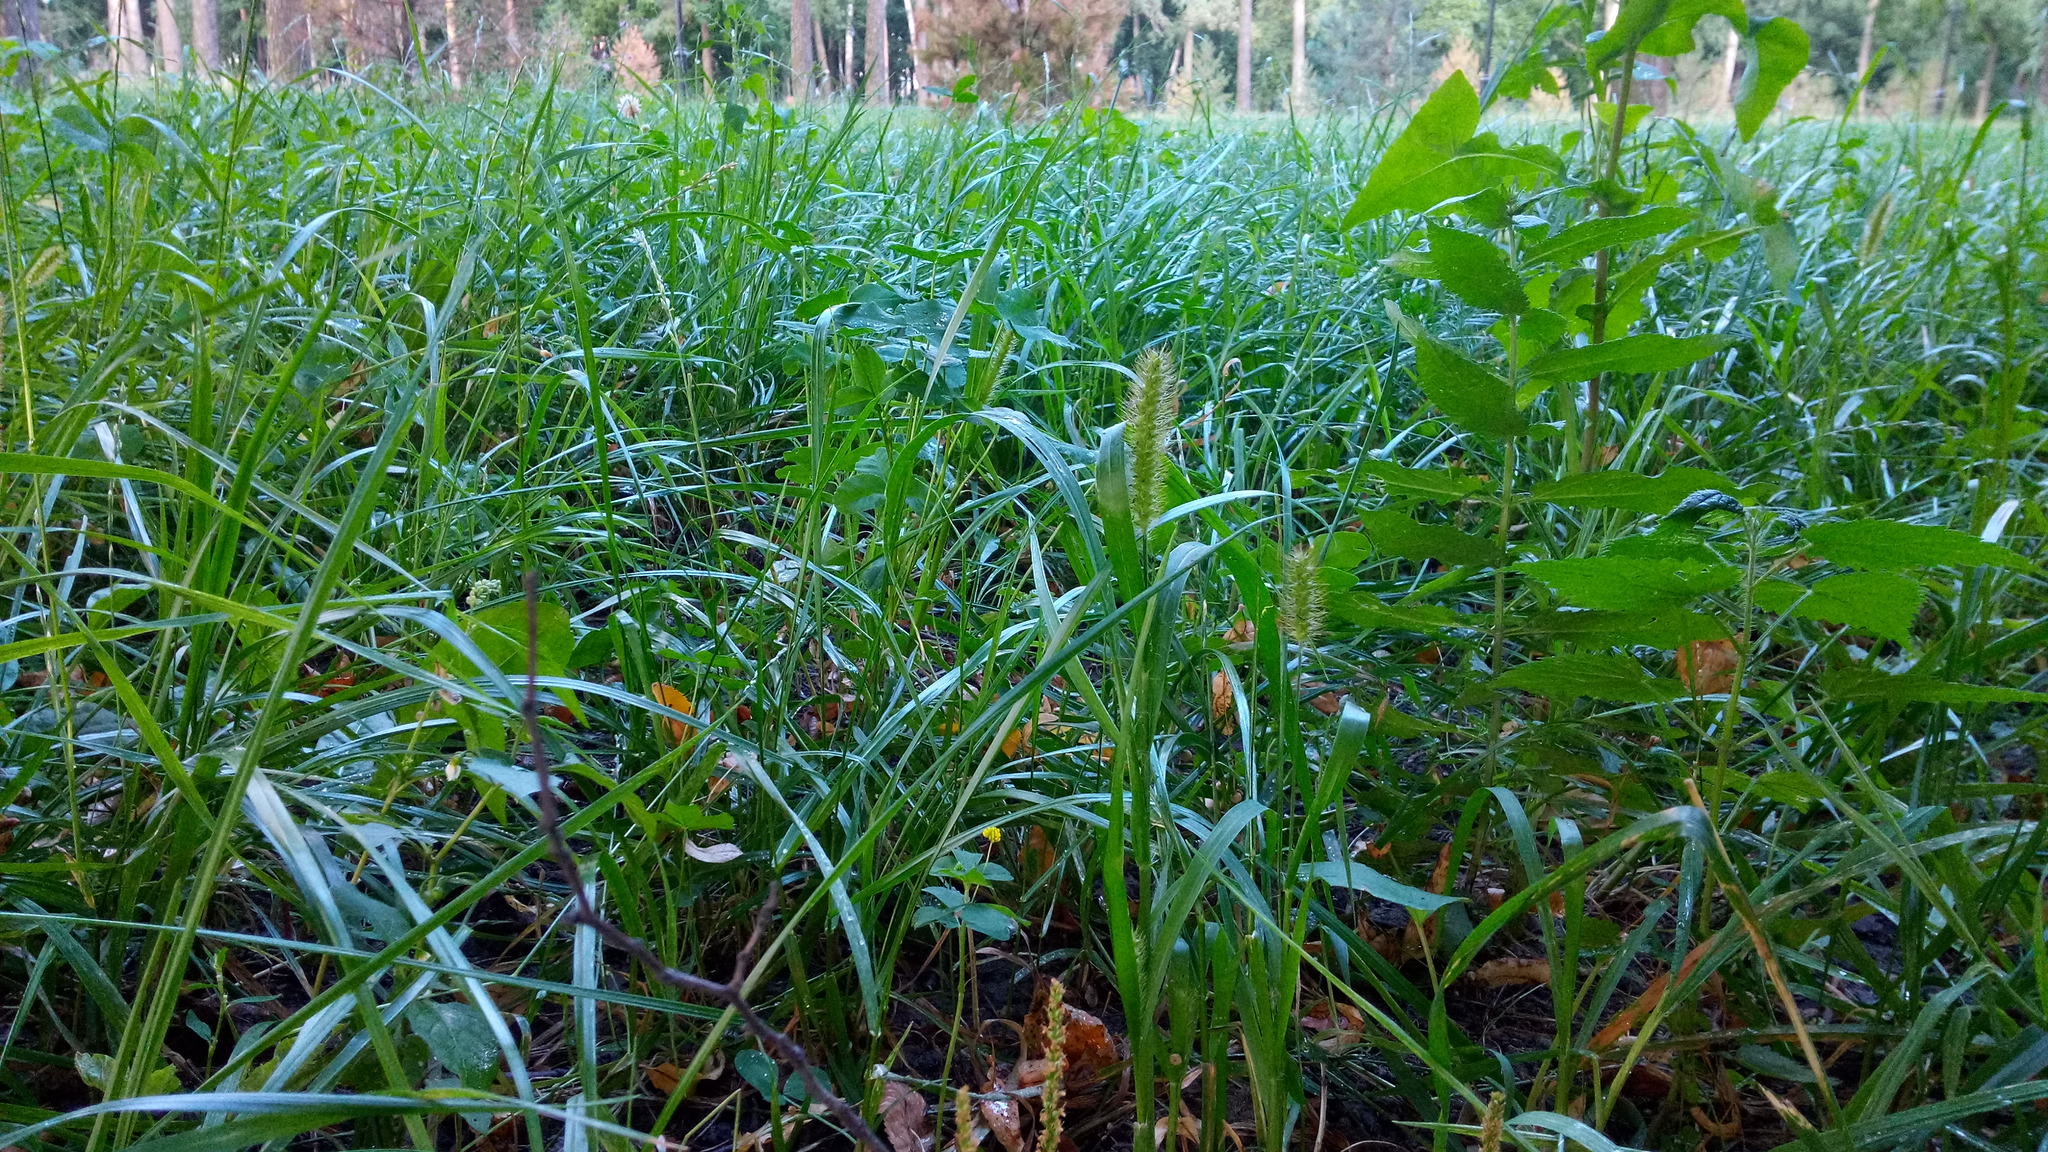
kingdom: Plantae
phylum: Tracheophyta
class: Liliopsida
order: Poales
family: Poaceae
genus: Setaria
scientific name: Setaria viridis
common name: Green bristlegrass
